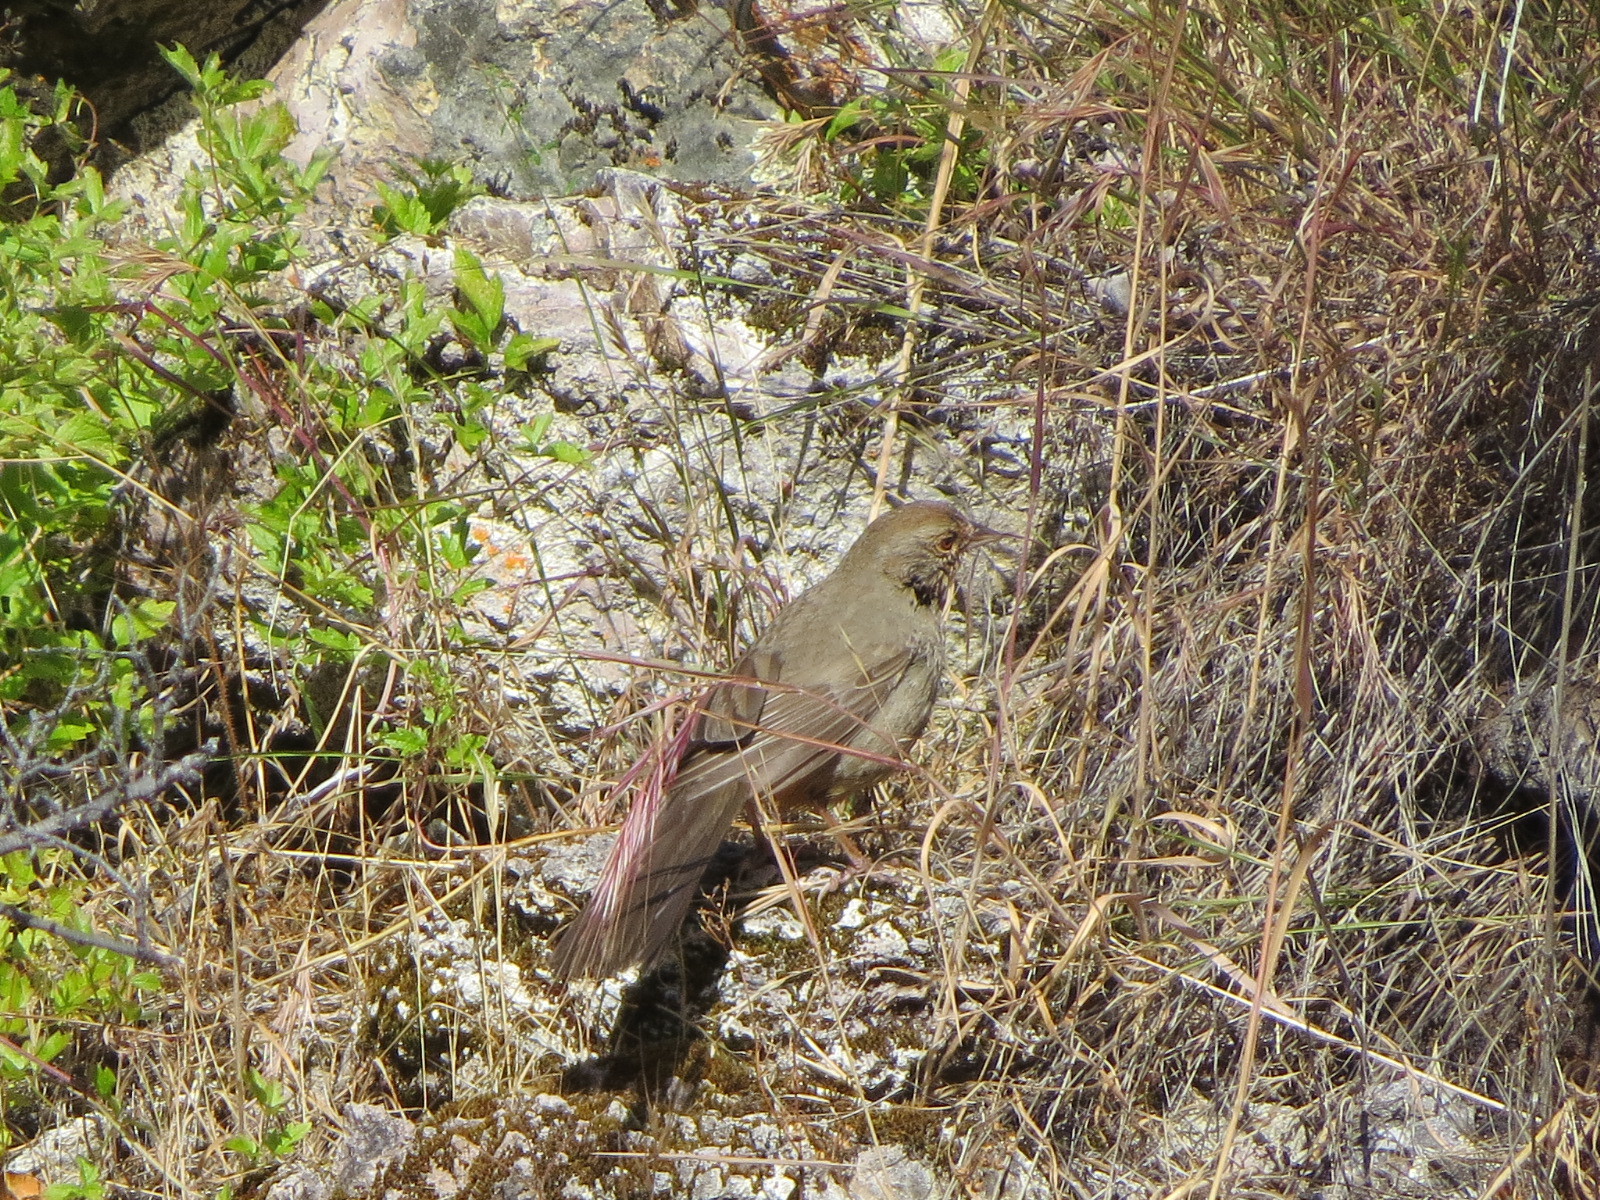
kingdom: Animalia
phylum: Chordata
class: Aves
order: Passeriformes
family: Passerellidae
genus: Melozone
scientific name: Melozone crissalis
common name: California towhee
